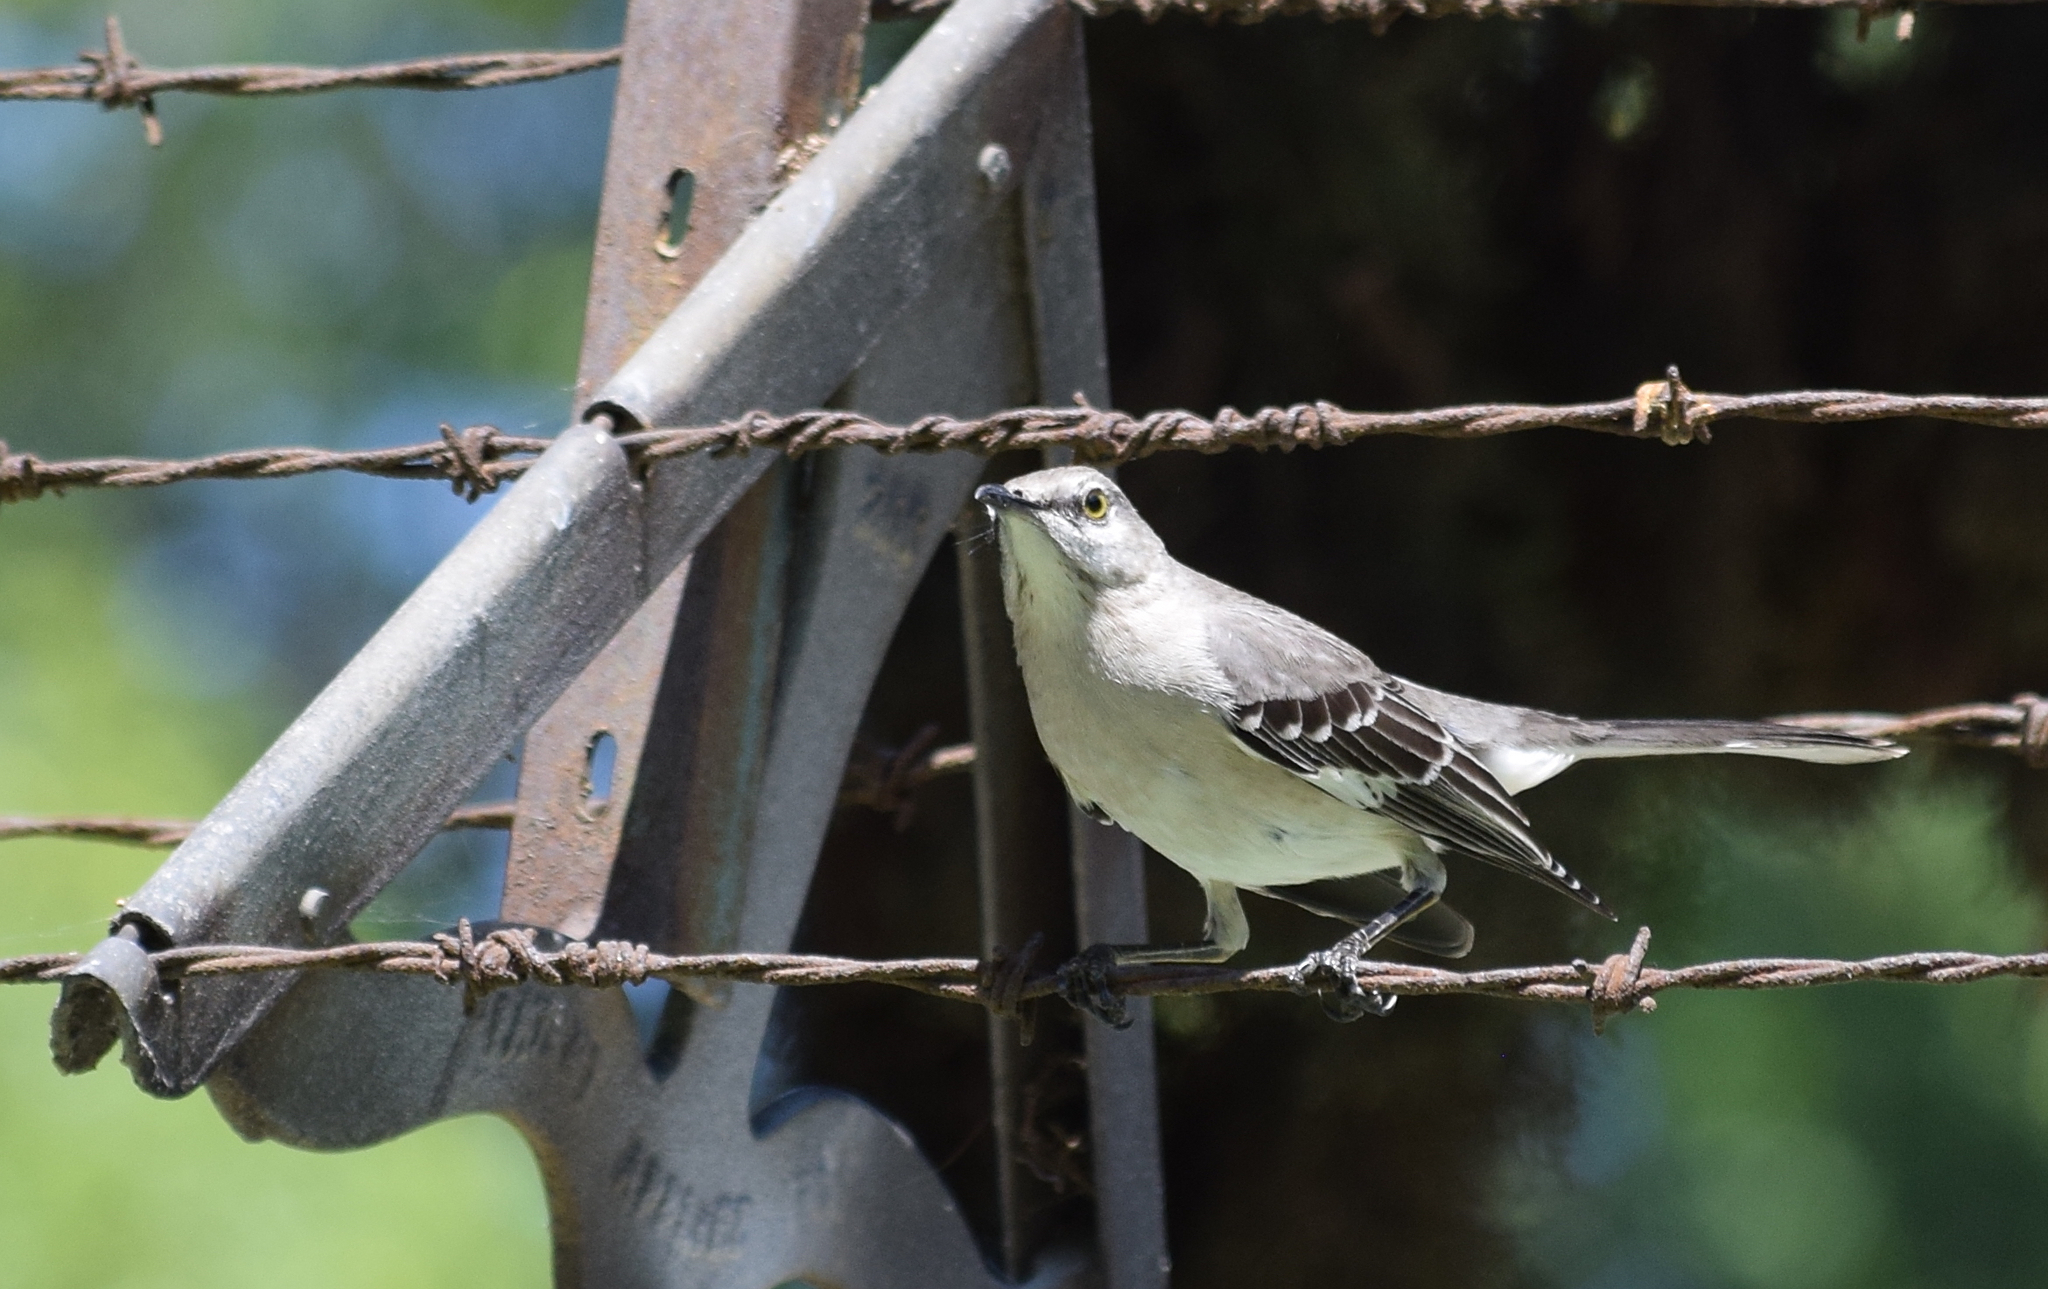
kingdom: Animalia
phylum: Chordata
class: Aves
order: Passeriformes
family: Mimidae
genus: Mimus
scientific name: Mimus polyglottos
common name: Northern mockingbird
